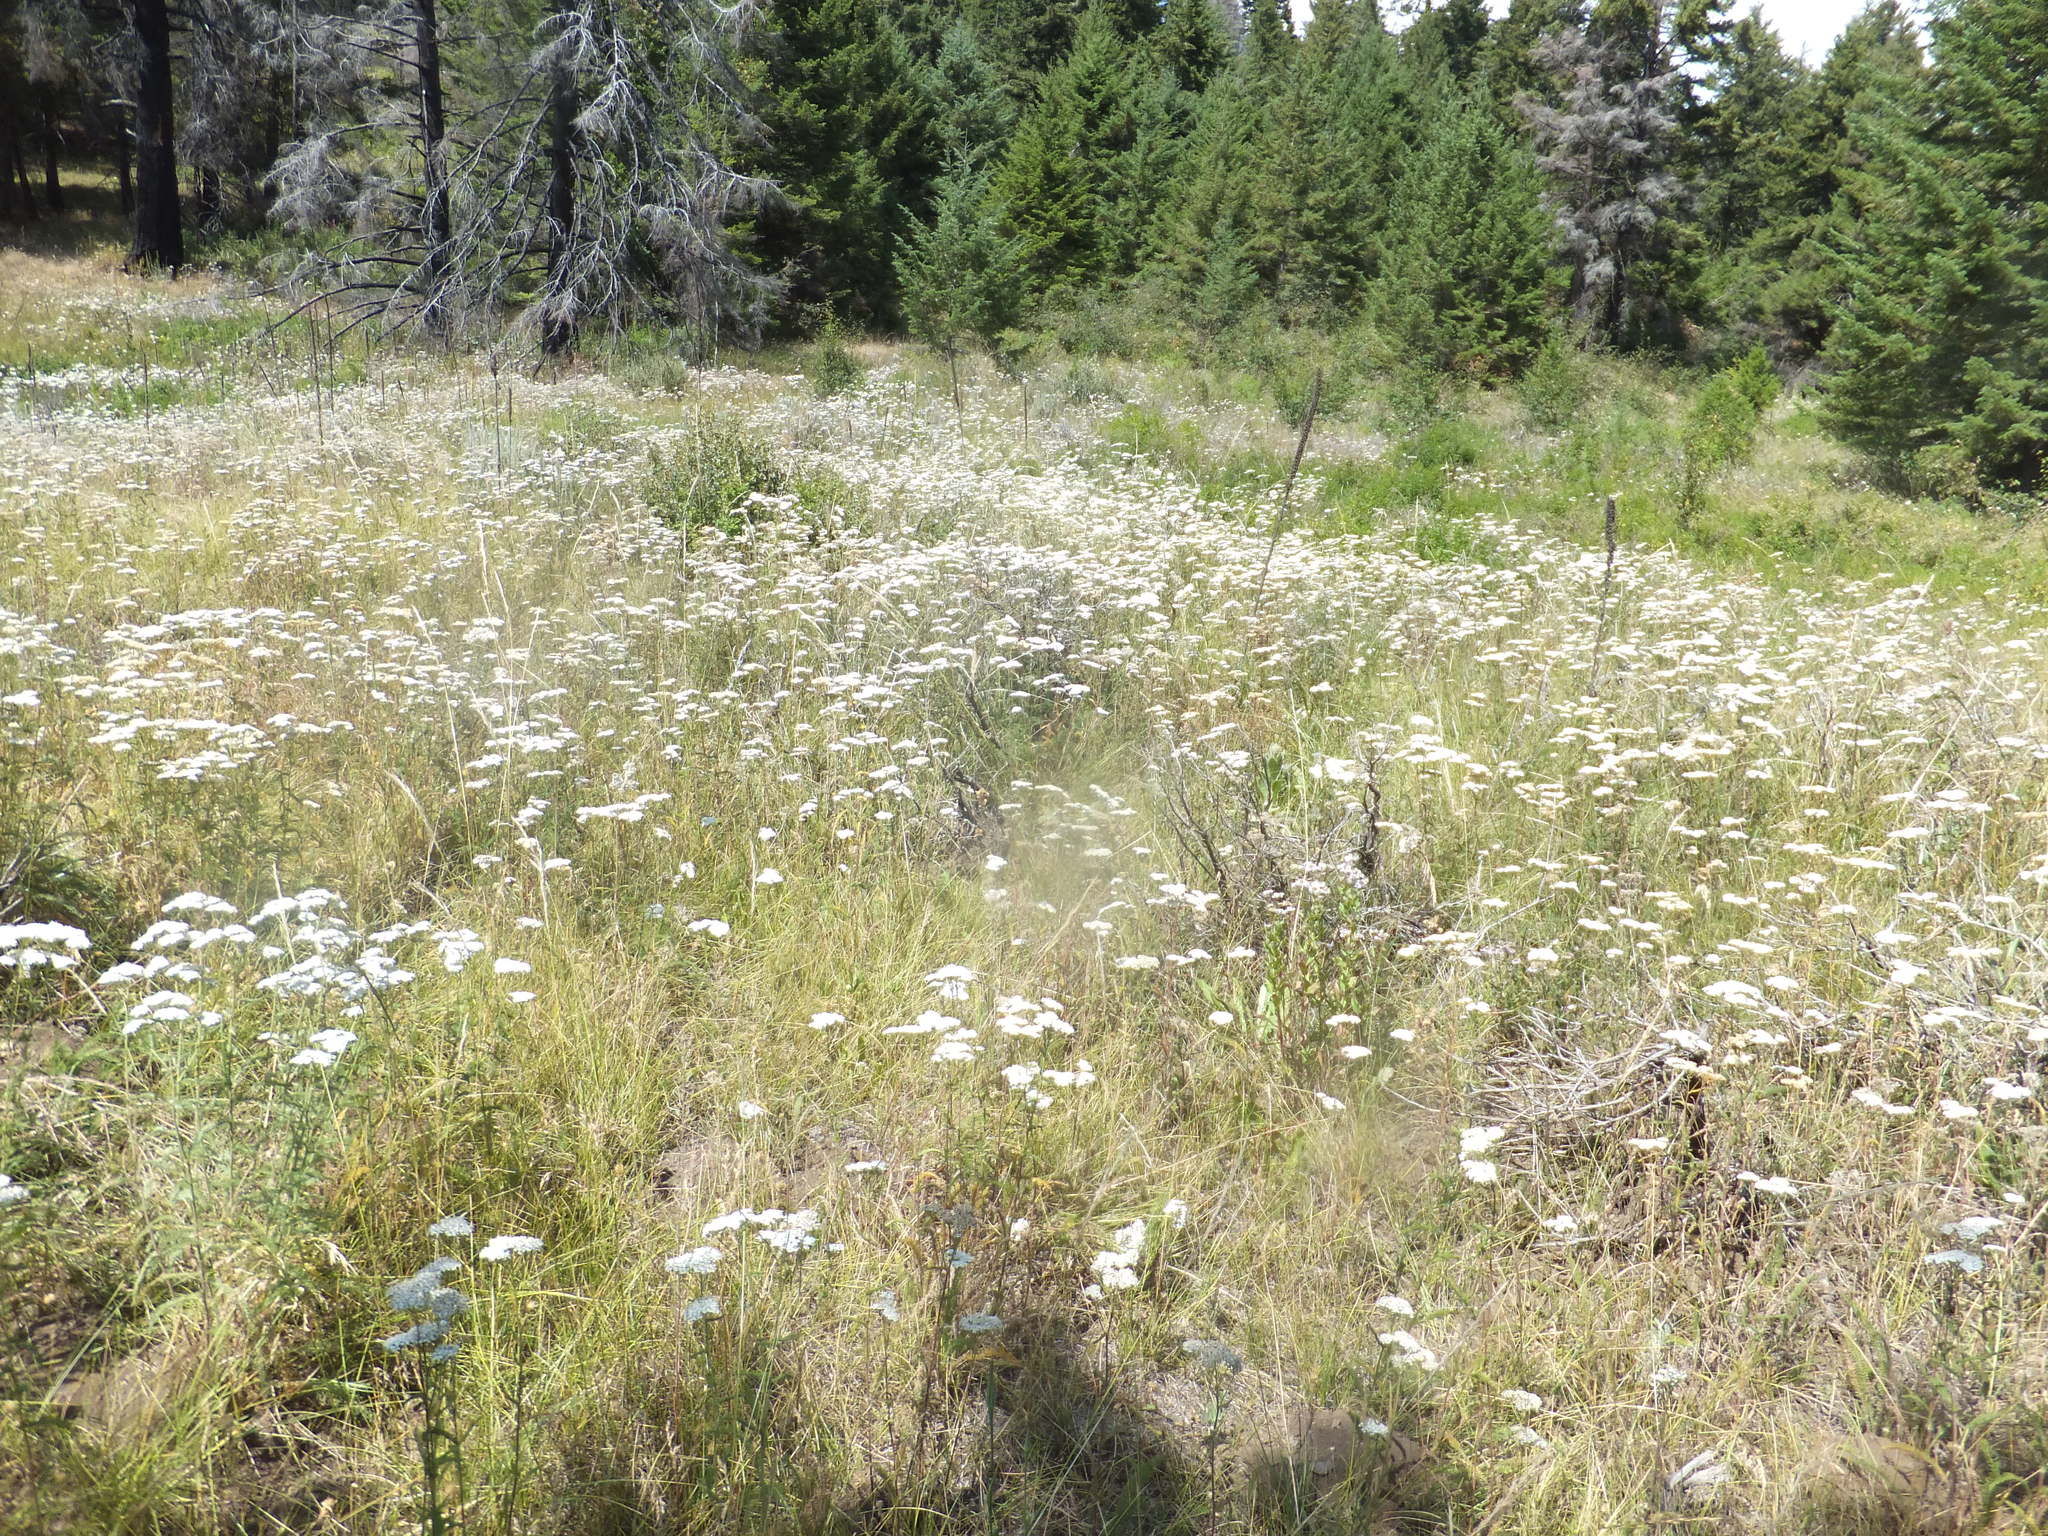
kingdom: Plantae
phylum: Tracheophyta
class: Magnoliopsida
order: Asterales
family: Asteraceae
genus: Achillea
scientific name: Achillea millefolium
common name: Yarrow
